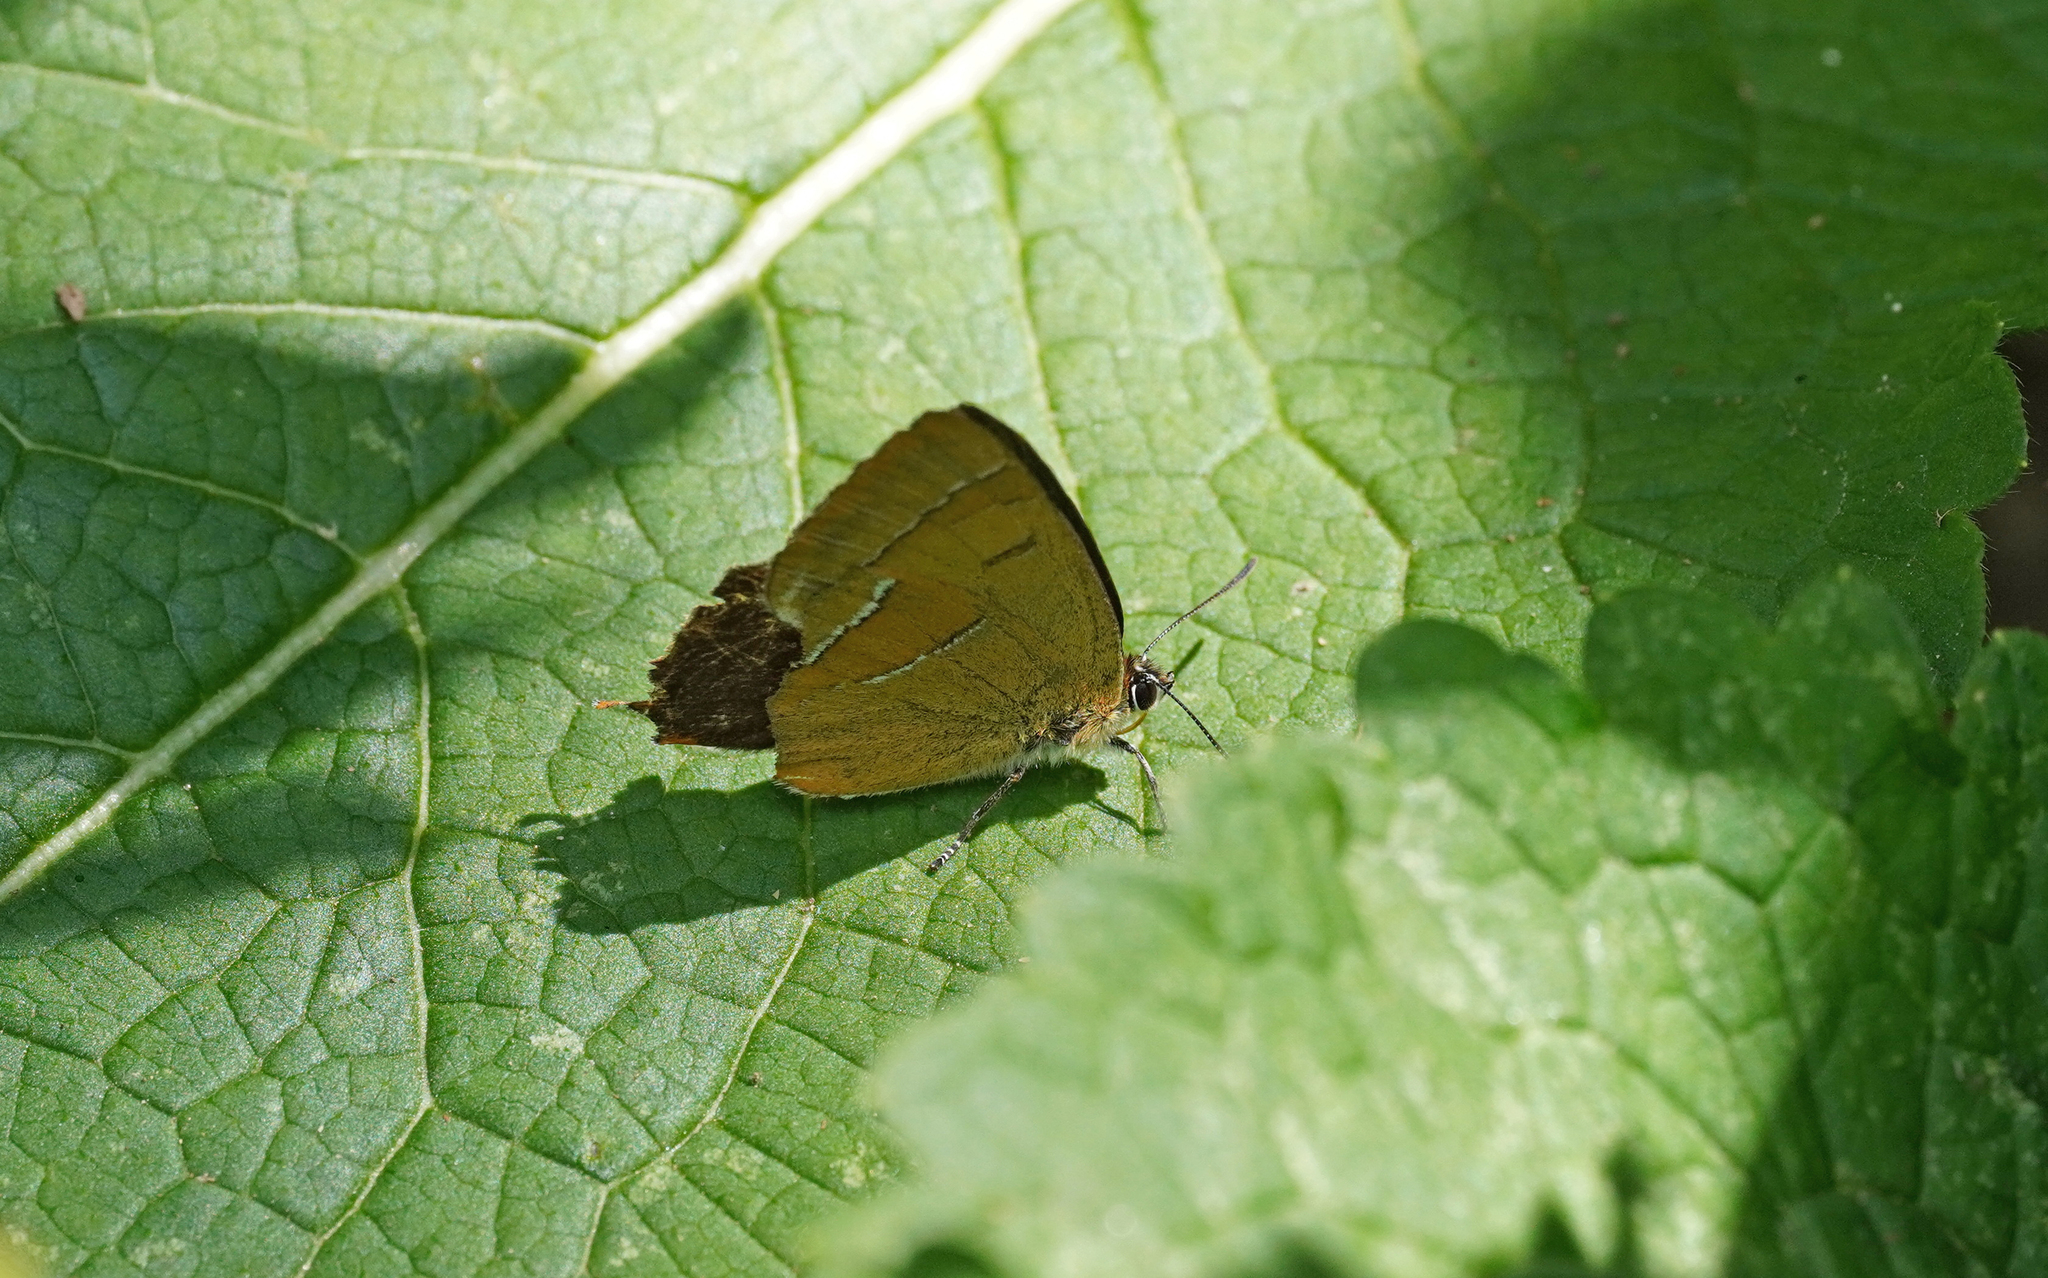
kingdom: Animalia
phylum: Arthropoda
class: Insecta
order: Lepidoptera
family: Lycaenidae
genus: Thecla
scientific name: Thecla betulae
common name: Brown hairstreak
